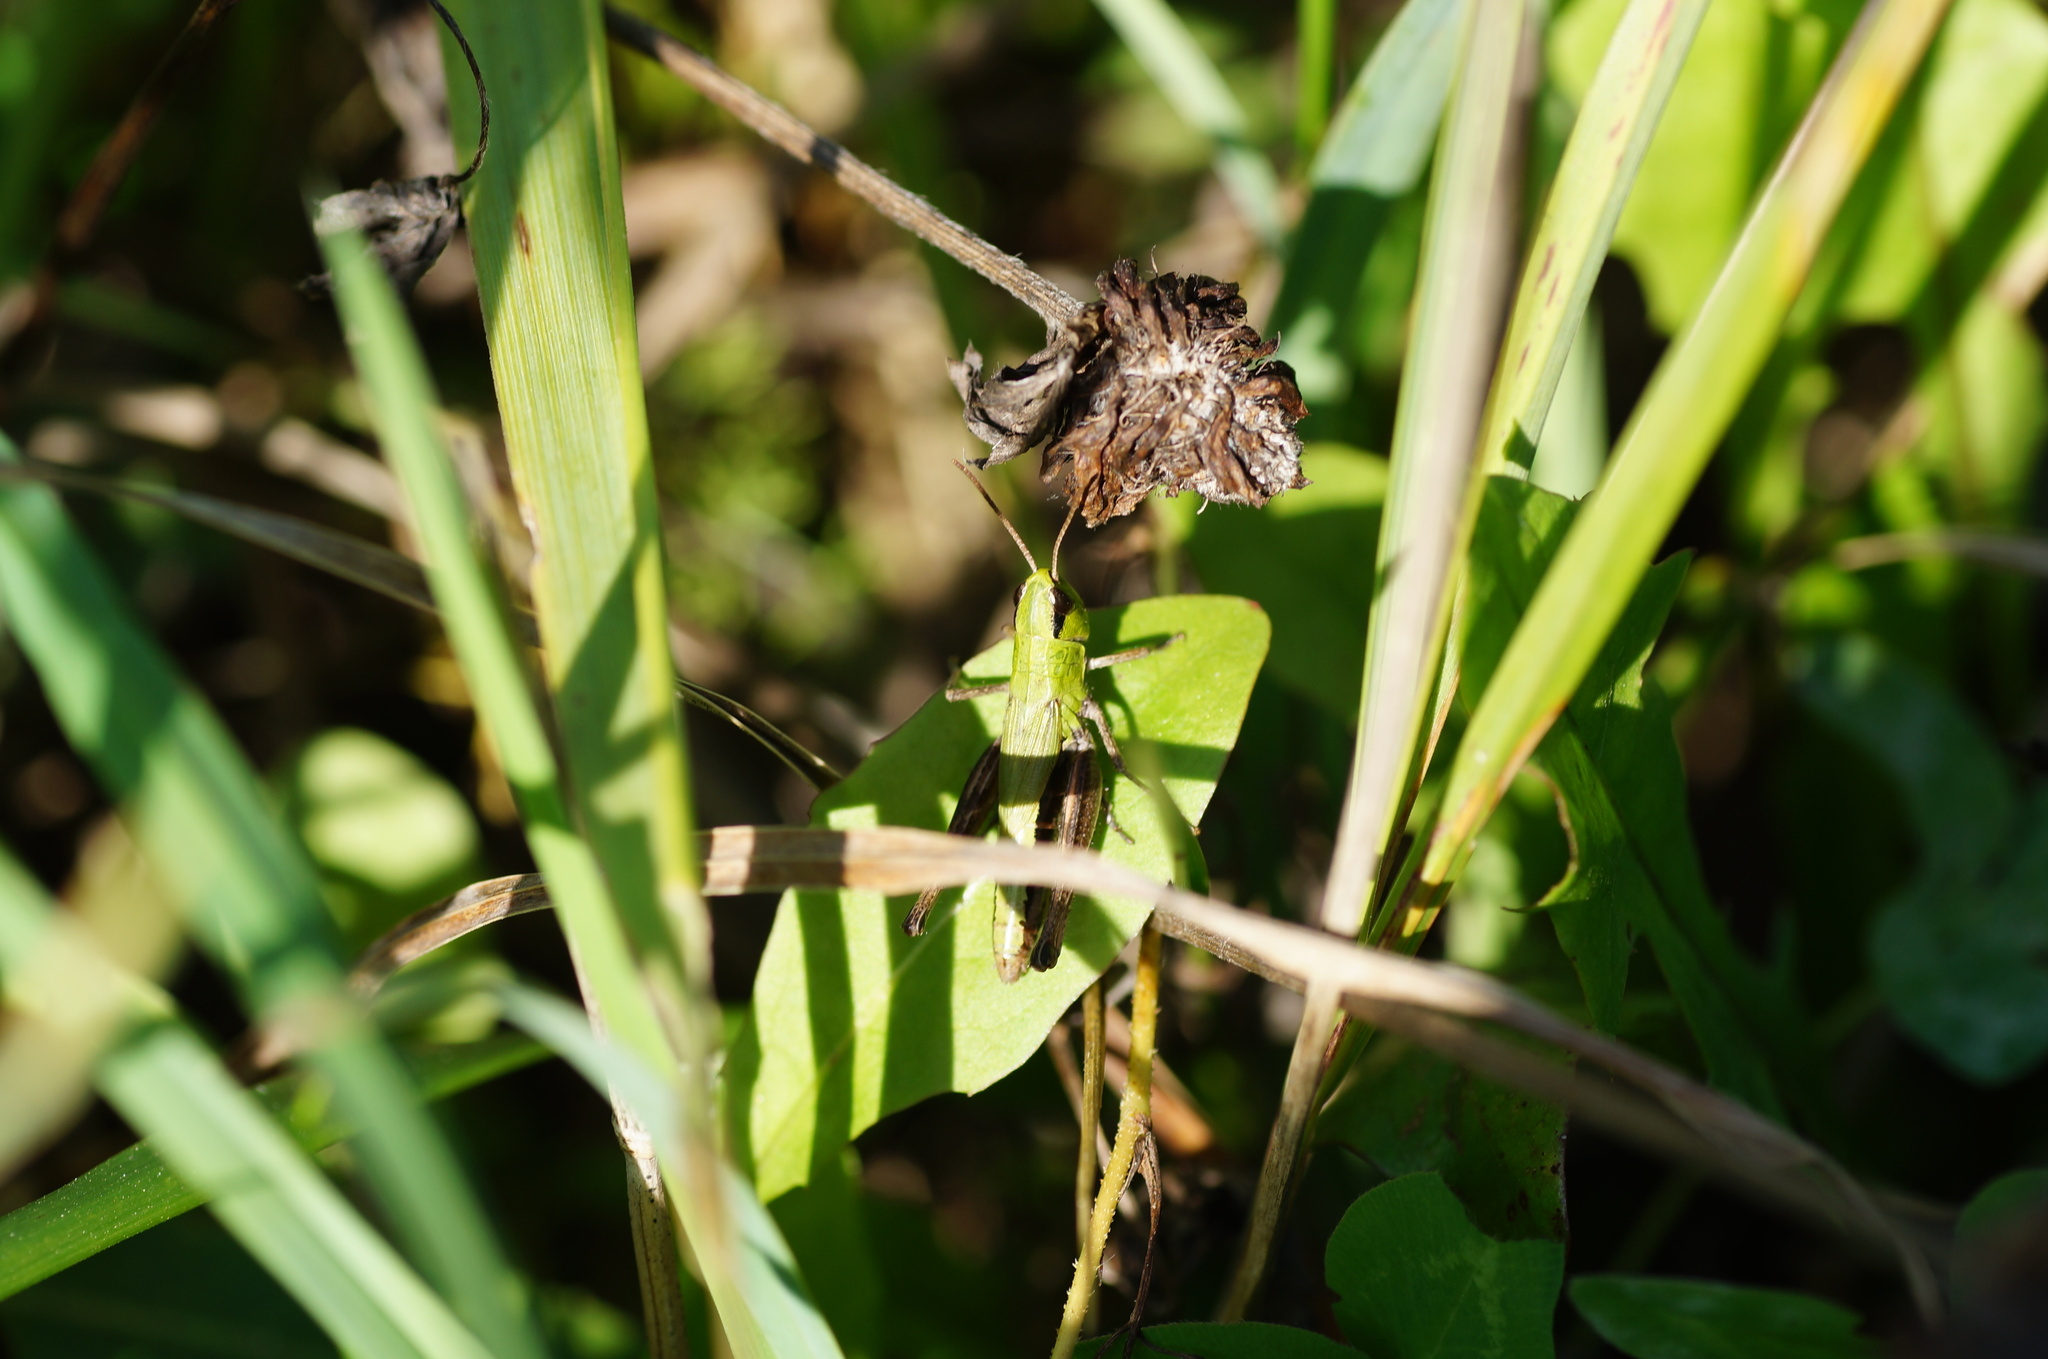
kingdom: Animalia
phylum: Arthropoda
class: Insecta
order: Orthoptera
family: Acrididae
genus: Pseudochorthippus
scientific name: Pseudochorthippus parallelus
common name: Meadow grasshopper
